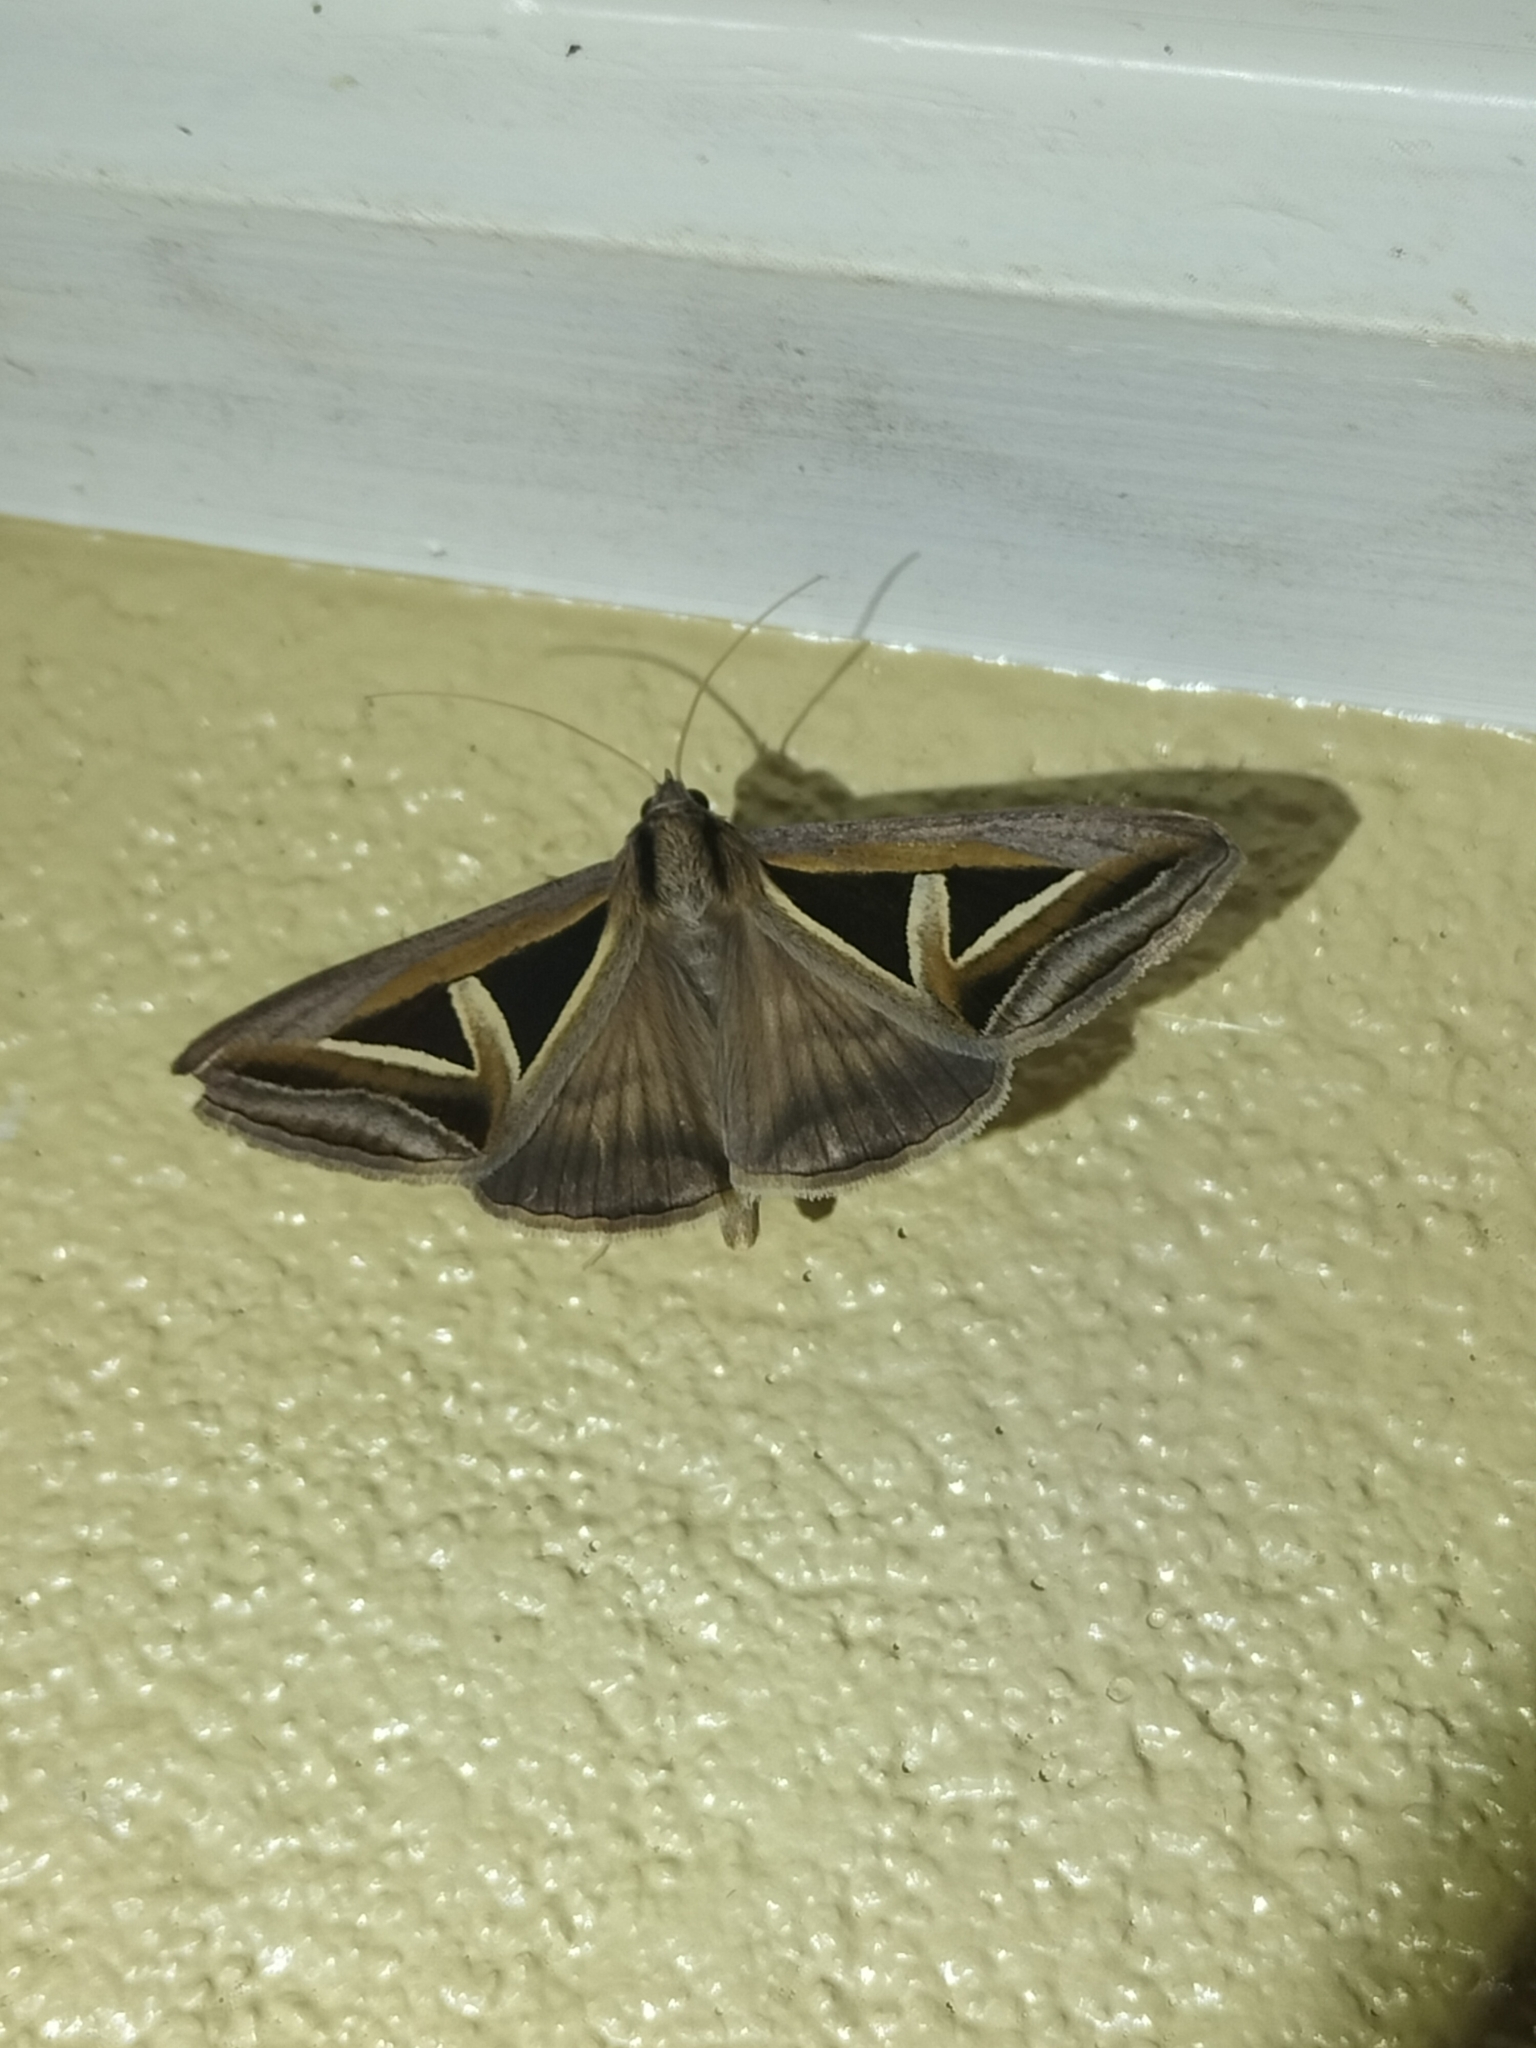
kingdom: Animalia
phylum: Arthropoda
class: Insecta
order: Lepidoptera
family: Erebidae
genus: Trigonodes
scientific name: Trigonodes hyppasia
